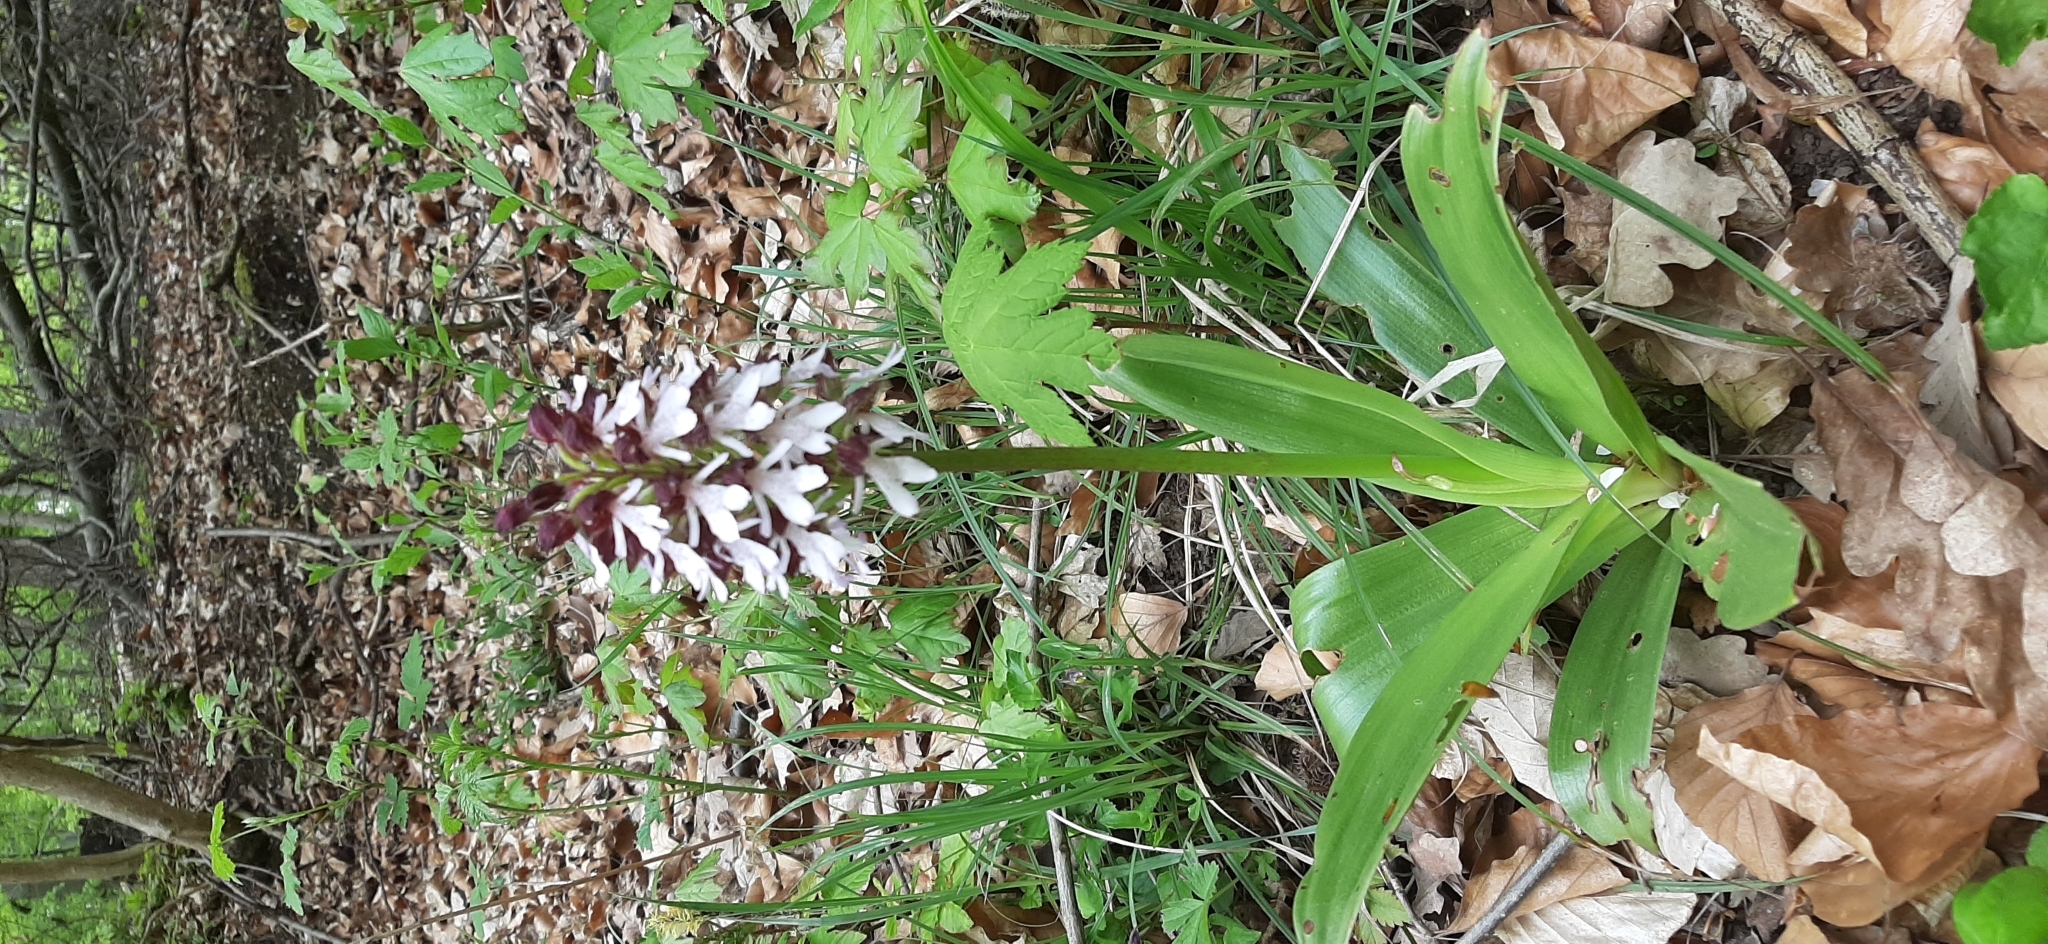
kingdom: Plantae
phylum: Tracheophyta
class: Liliopsida
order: Asparagales
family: Orchidaceae
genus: Orchis
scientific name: Orchis purpurea
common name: Lady orchid
